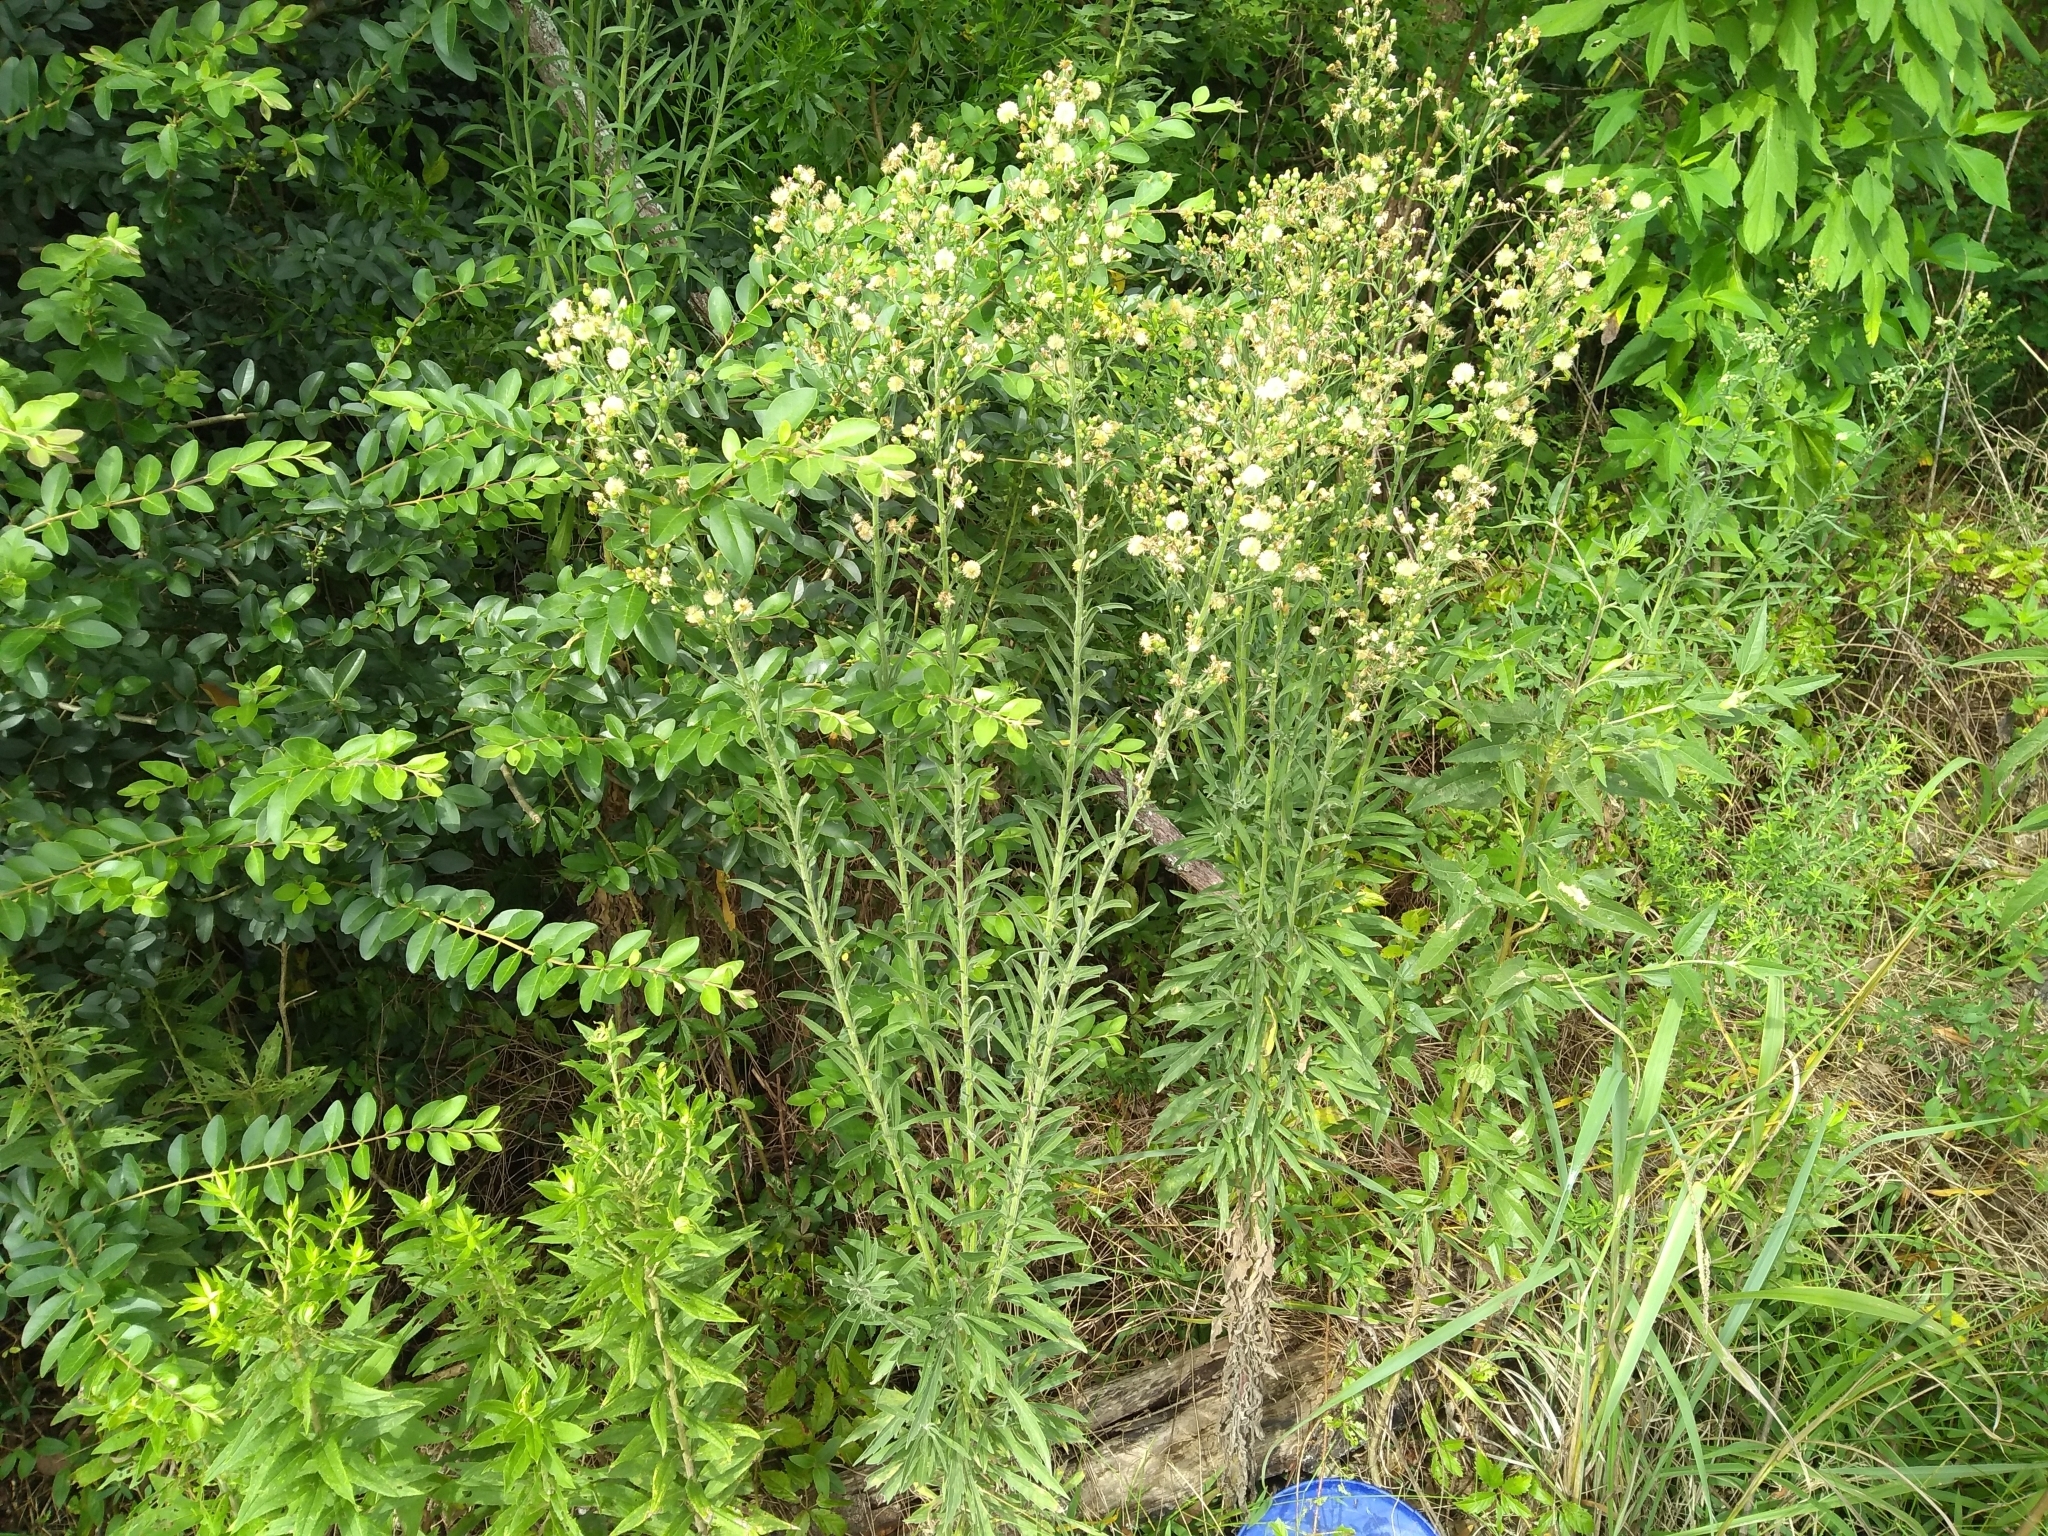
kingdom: Plantae
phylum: Tracheophyta
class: Magnoliopsida
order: Asterales
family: Asteraceae
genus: Erigeron
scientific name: Erigeron sumatrensis
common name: Daisy
